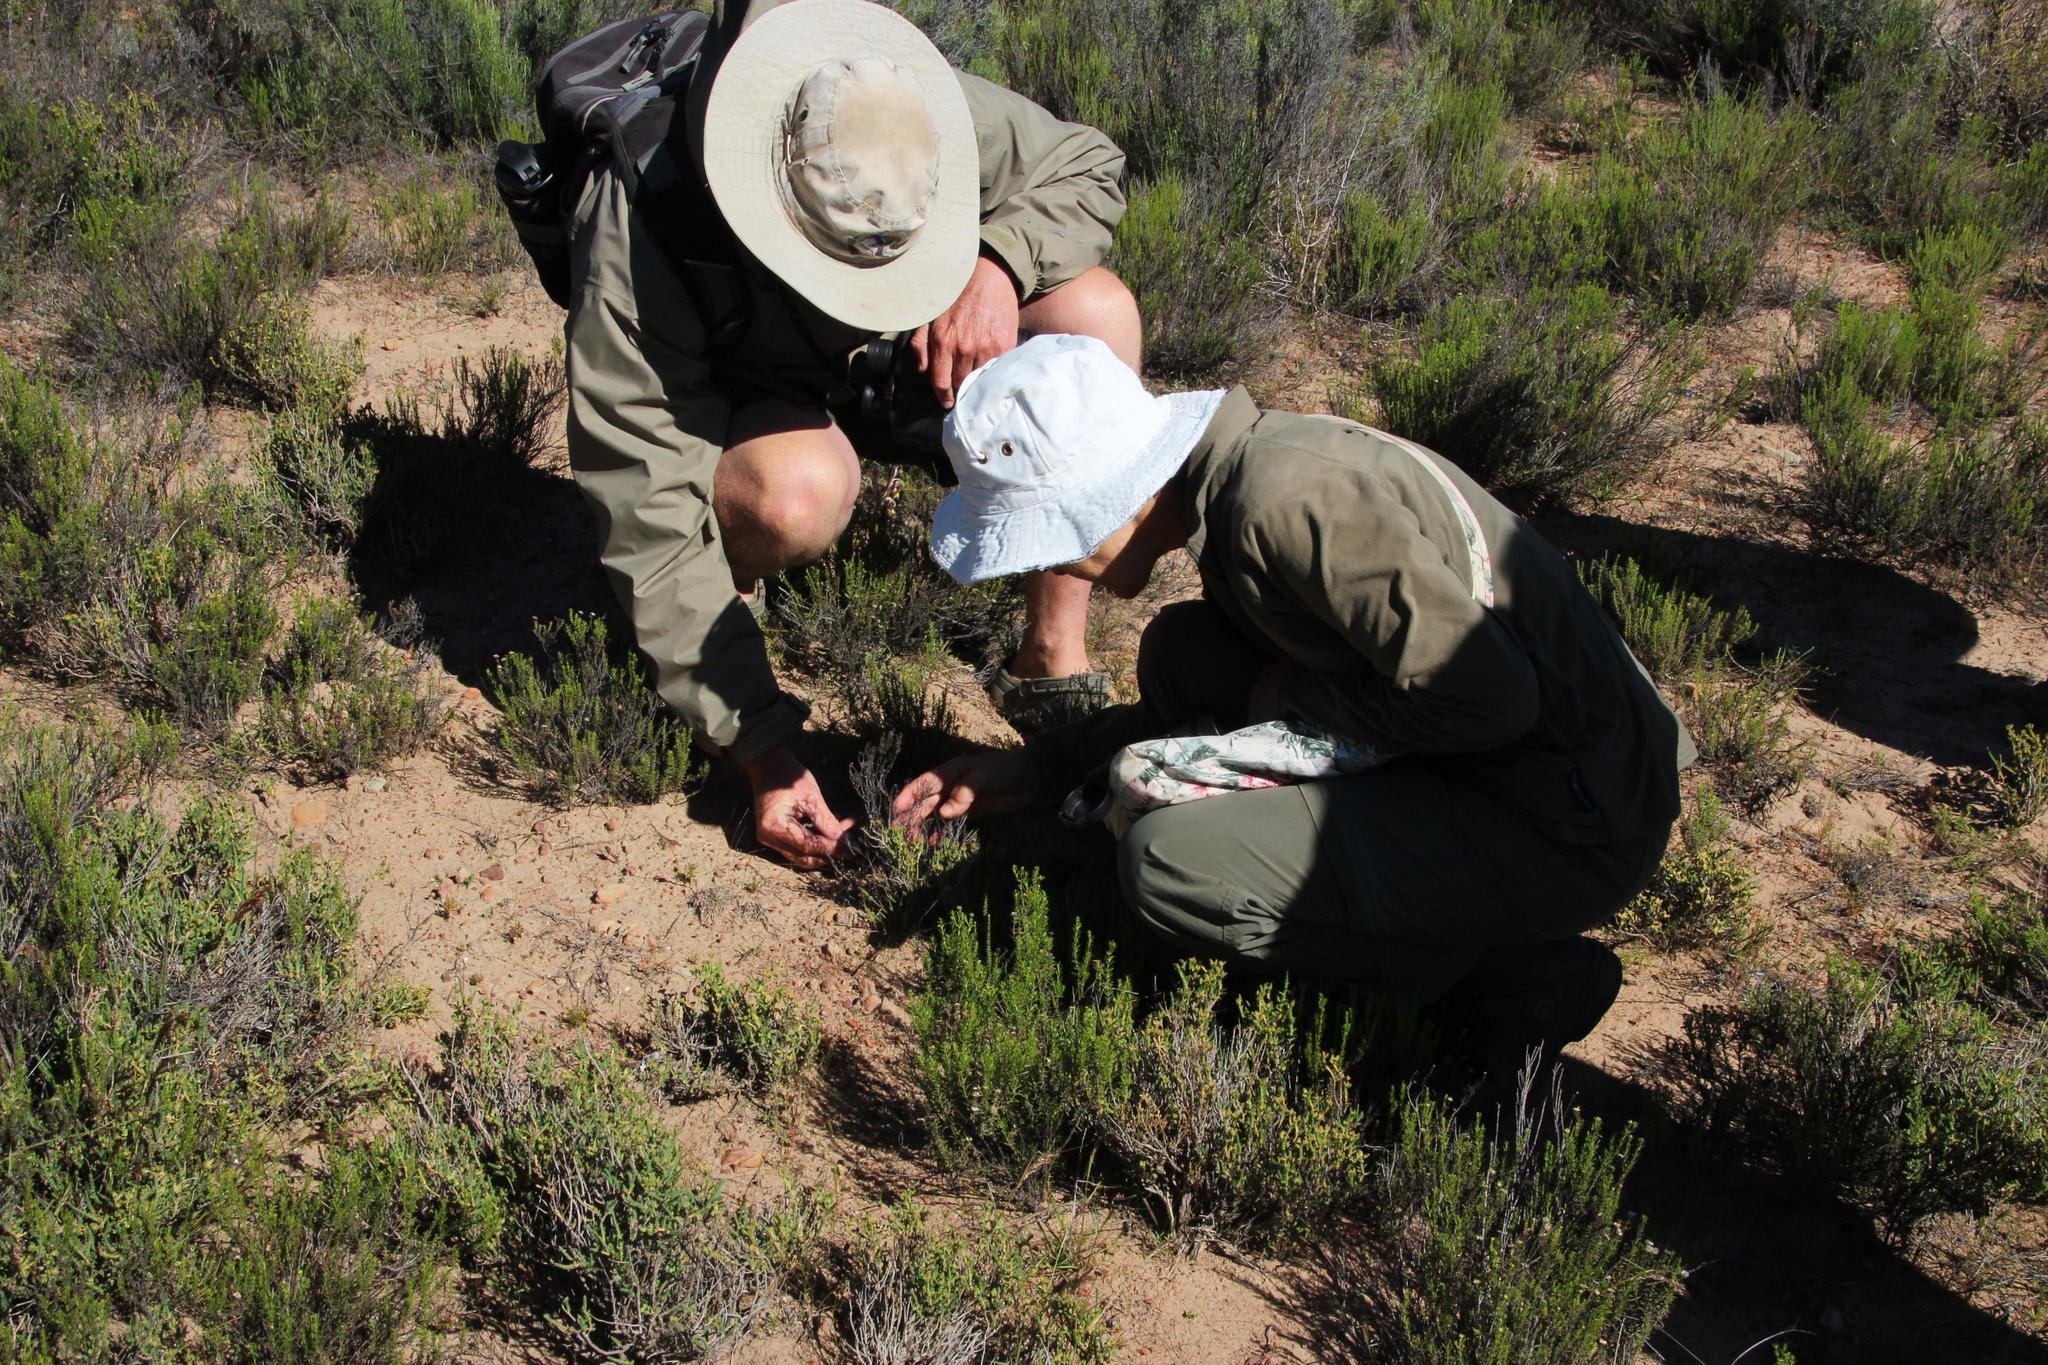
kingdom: Plantae
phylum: Tracheophyta
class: Liliopsida
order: Asparagales
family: Iridaceae
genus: Gladiolus
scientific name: Gladiolus virescens
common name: Yellow kalkoentjie
